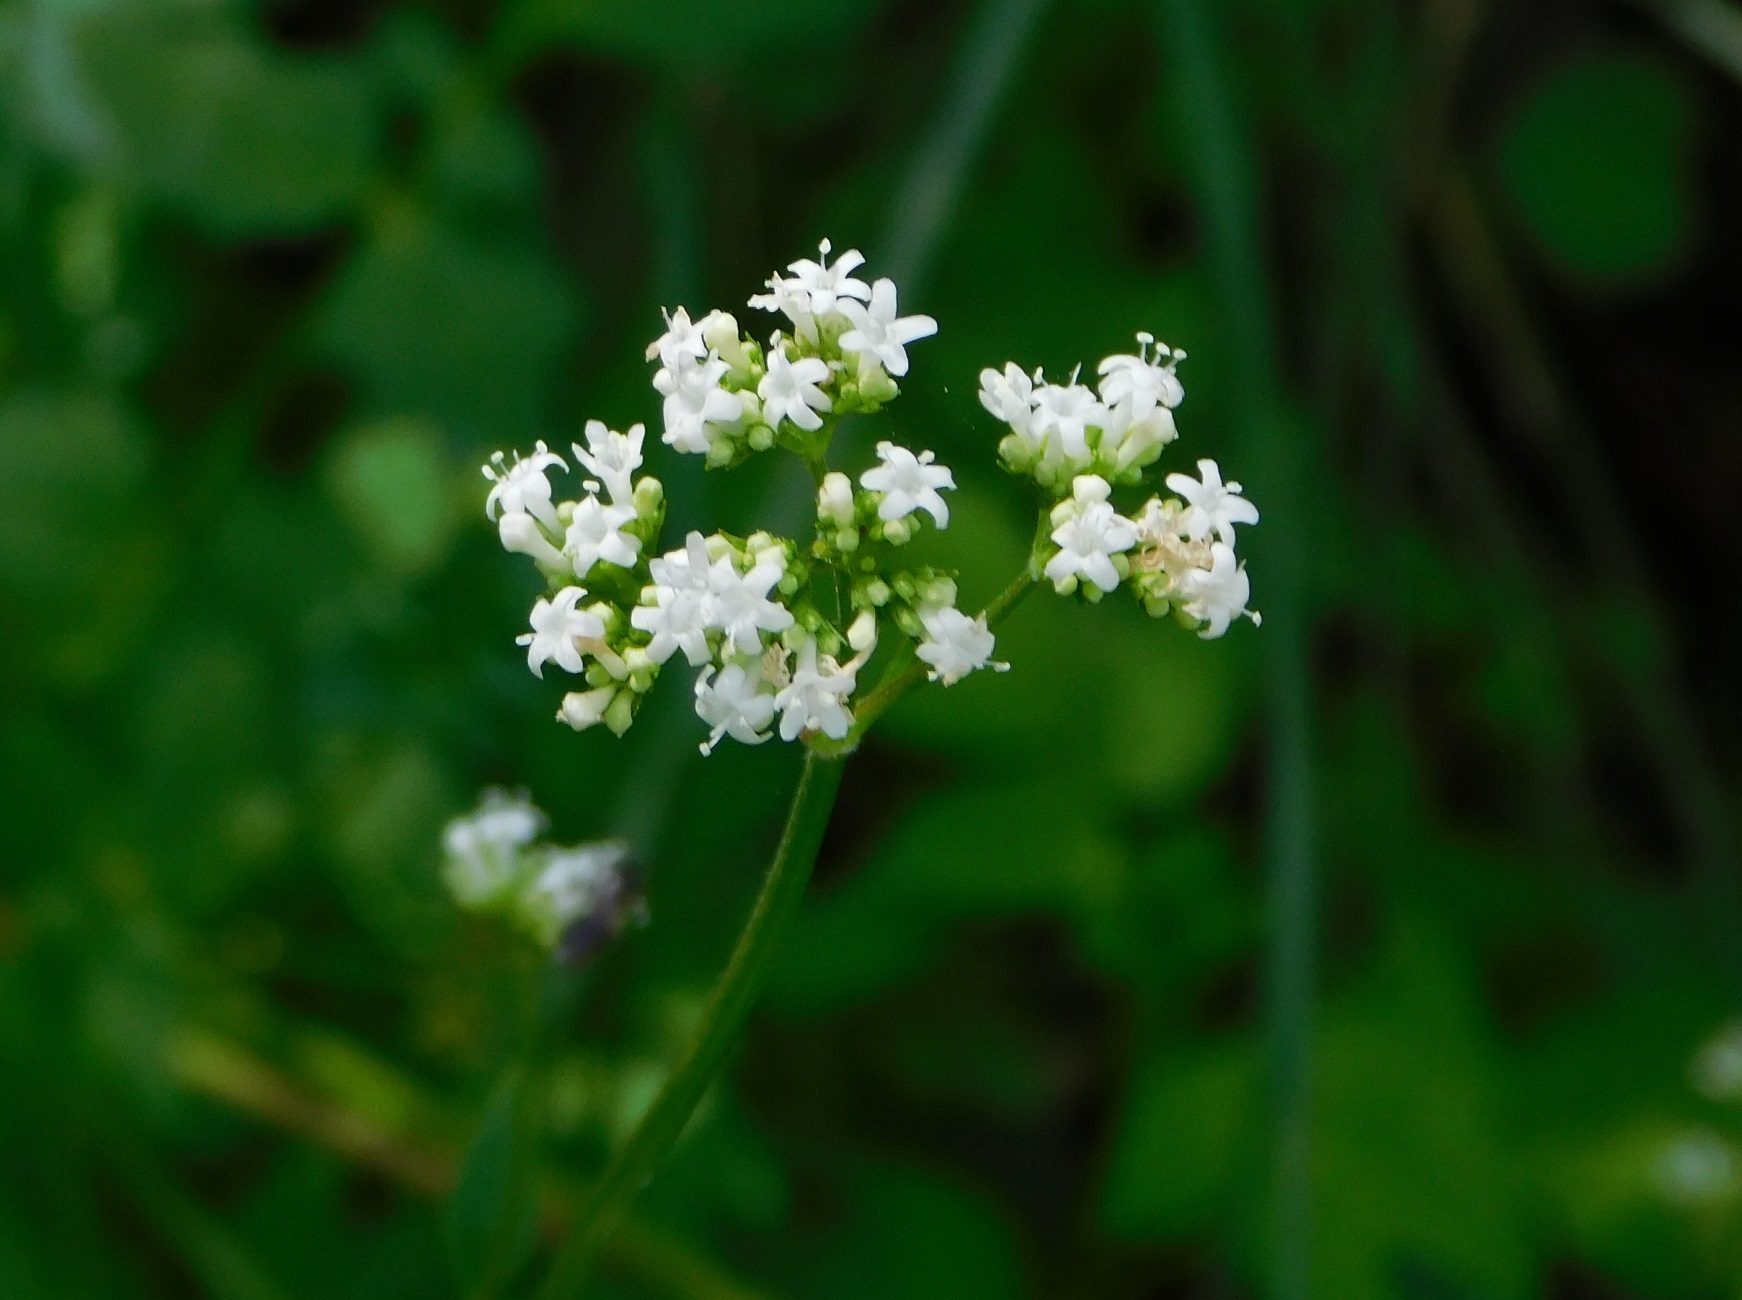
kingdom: Plantae
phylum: Tracheophyta
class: Magnoliopsida
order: Dipsacales
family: Caprifoliaceae
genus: Valeriana
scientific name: Valeriana chiapensis
